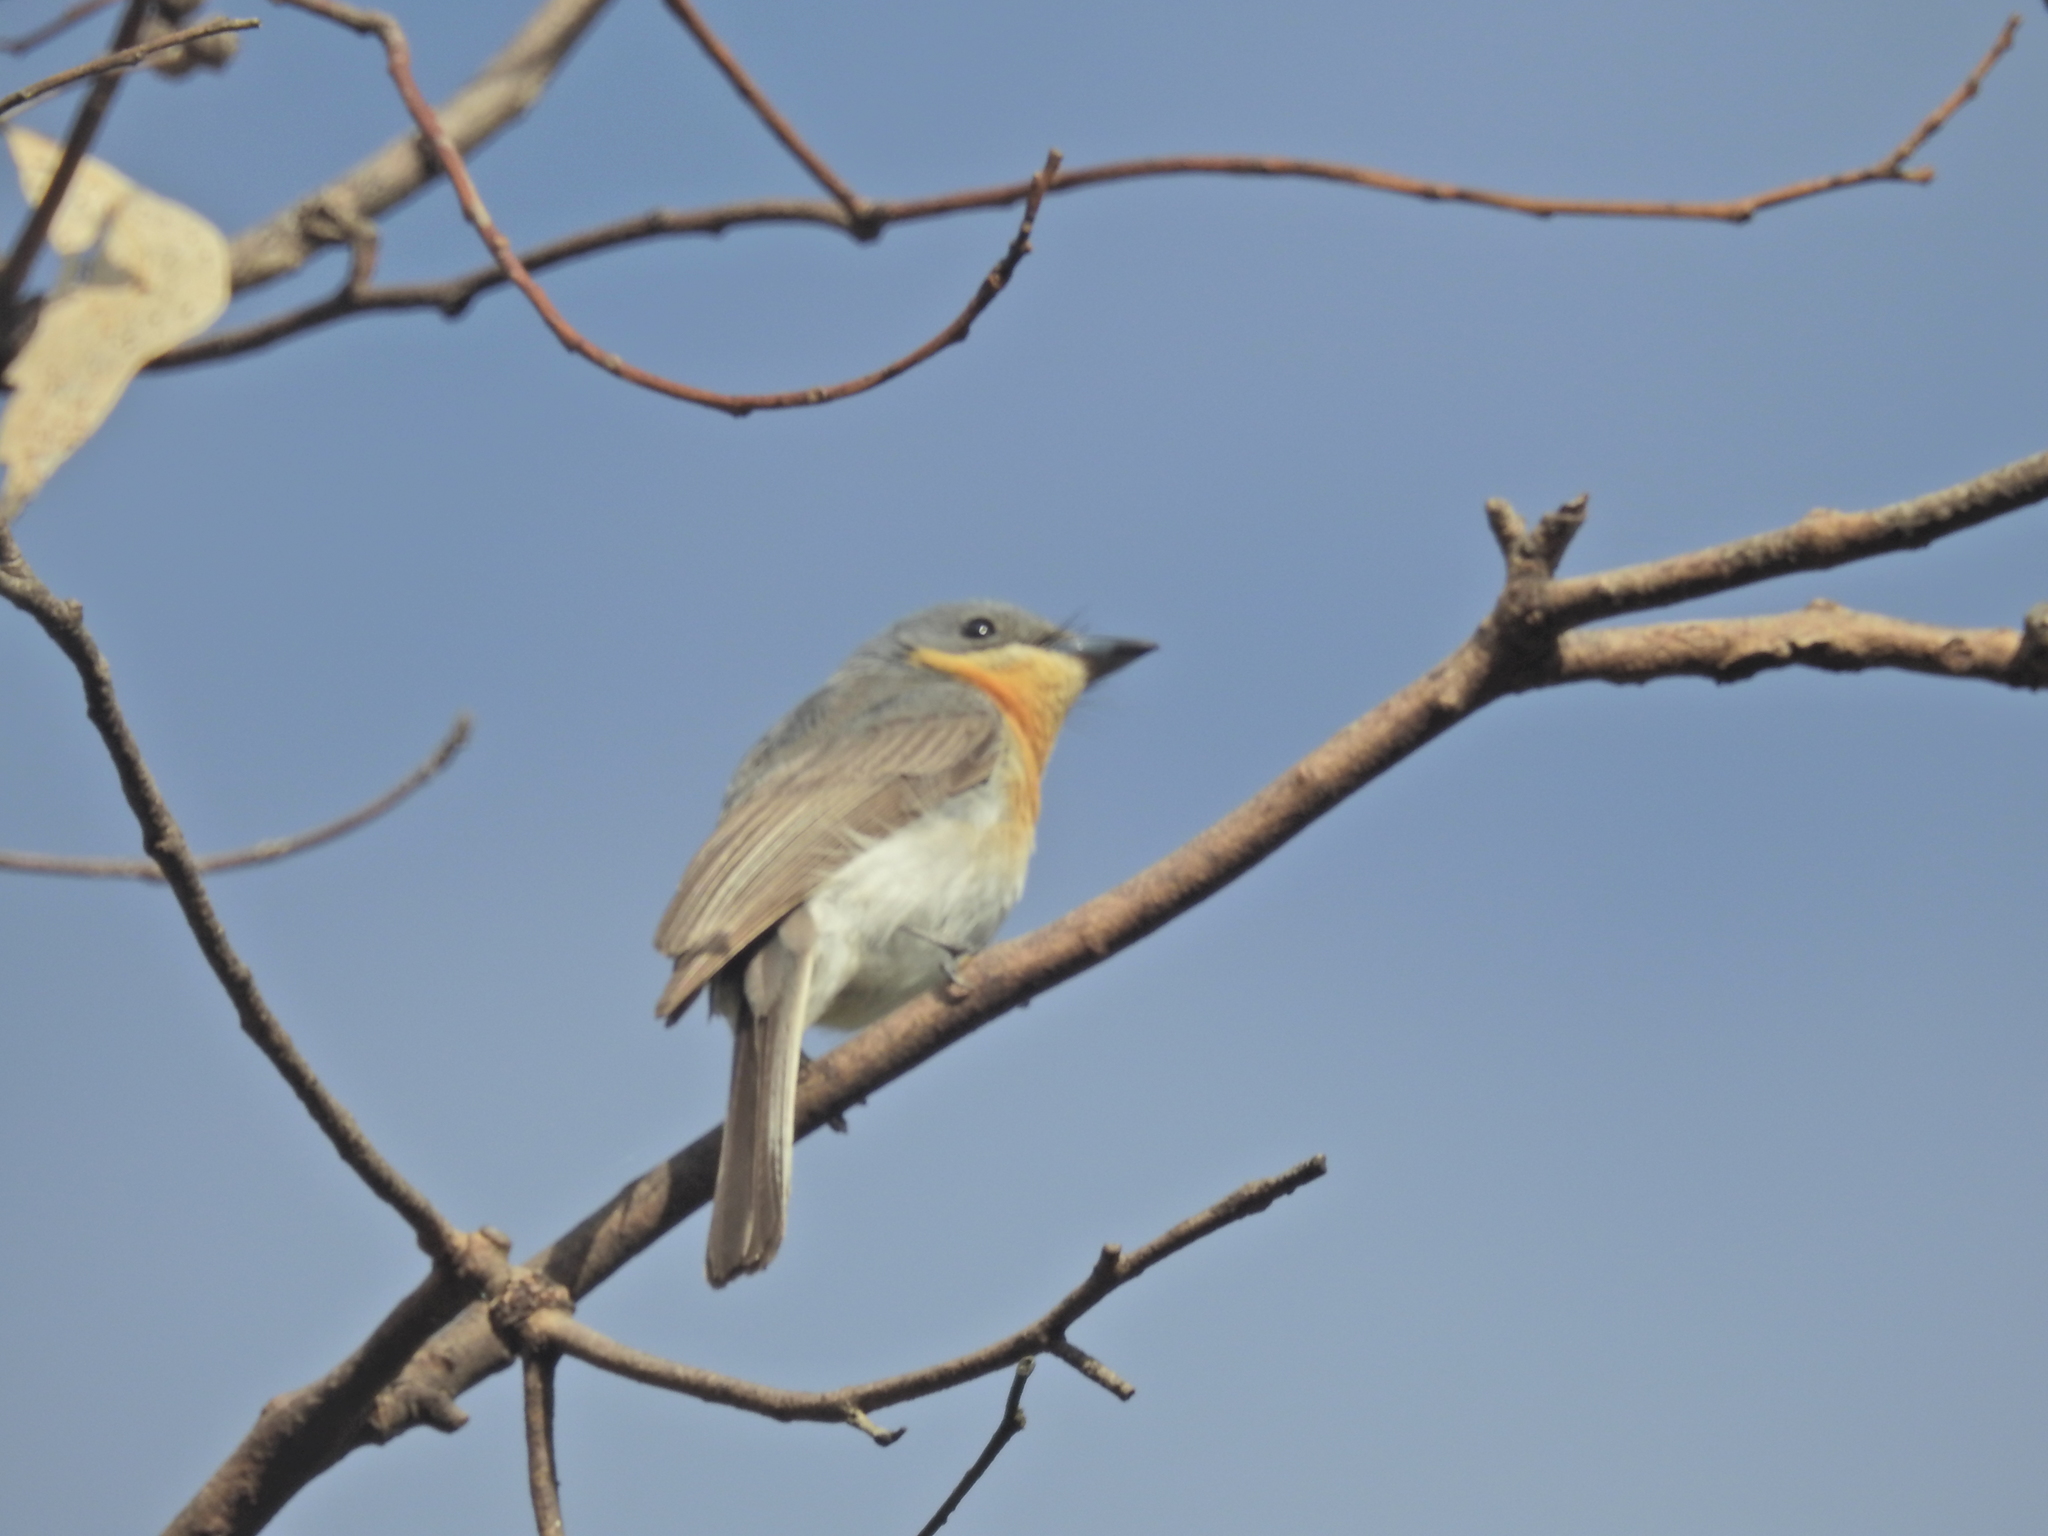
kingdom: Animalia
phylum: Chordata
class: Aves
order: Passeriformes
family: Monarchidae
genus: Myiagra
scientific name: Myiagra rubecula
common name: Leaden flycatcher
